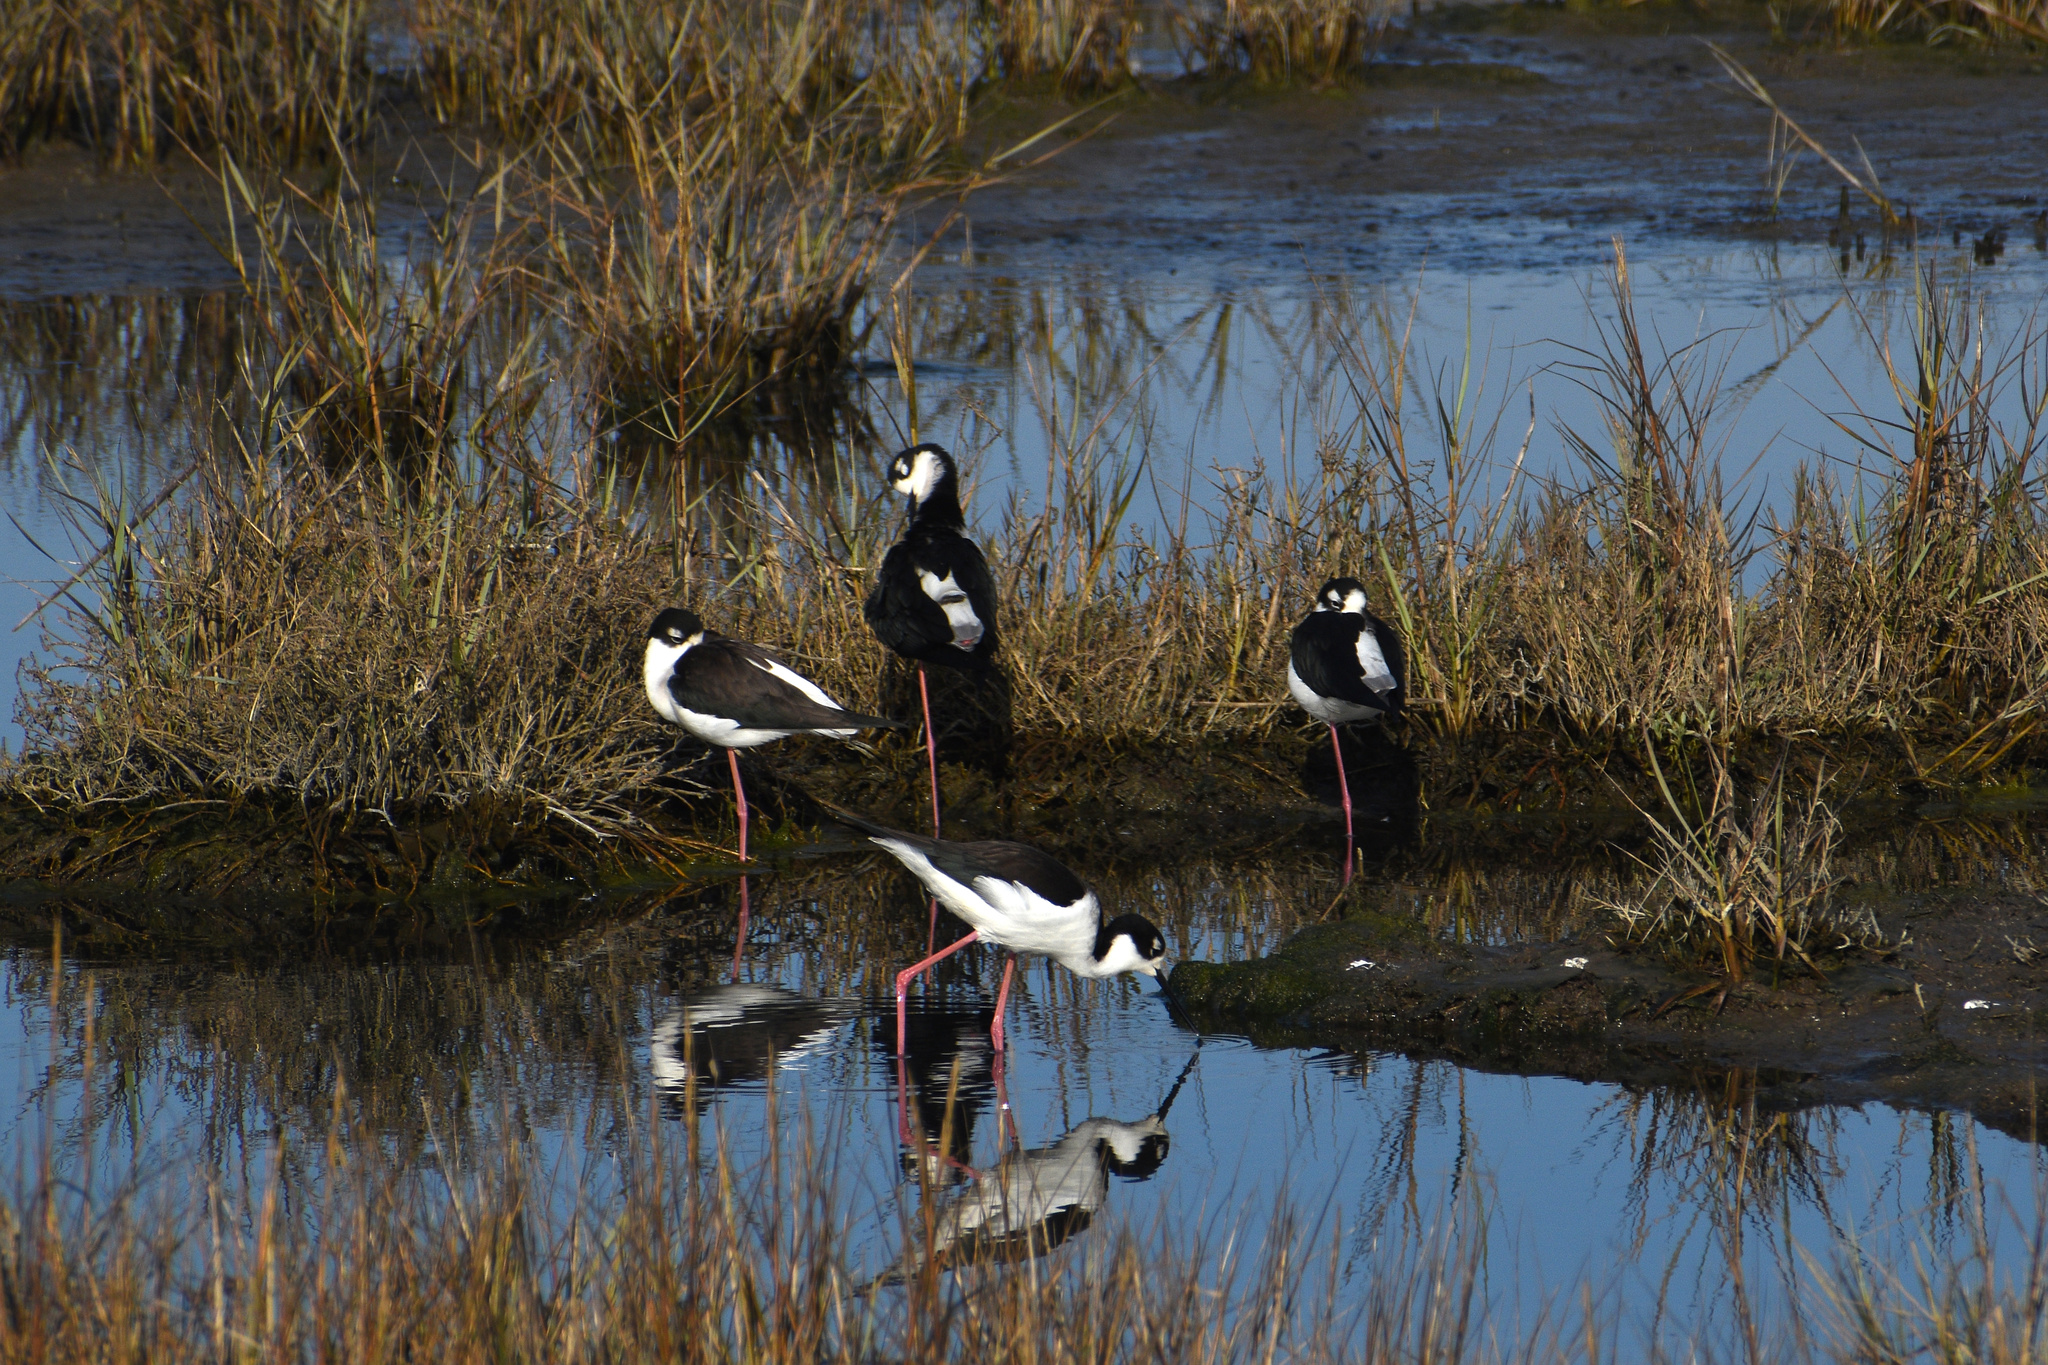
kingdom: Animalia
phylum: Chordata
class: Aves
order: Charadriiformes
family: Recurvirostridae
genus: Himantopus
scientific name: Himantopus mexicanus
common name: Black-necked stilt
